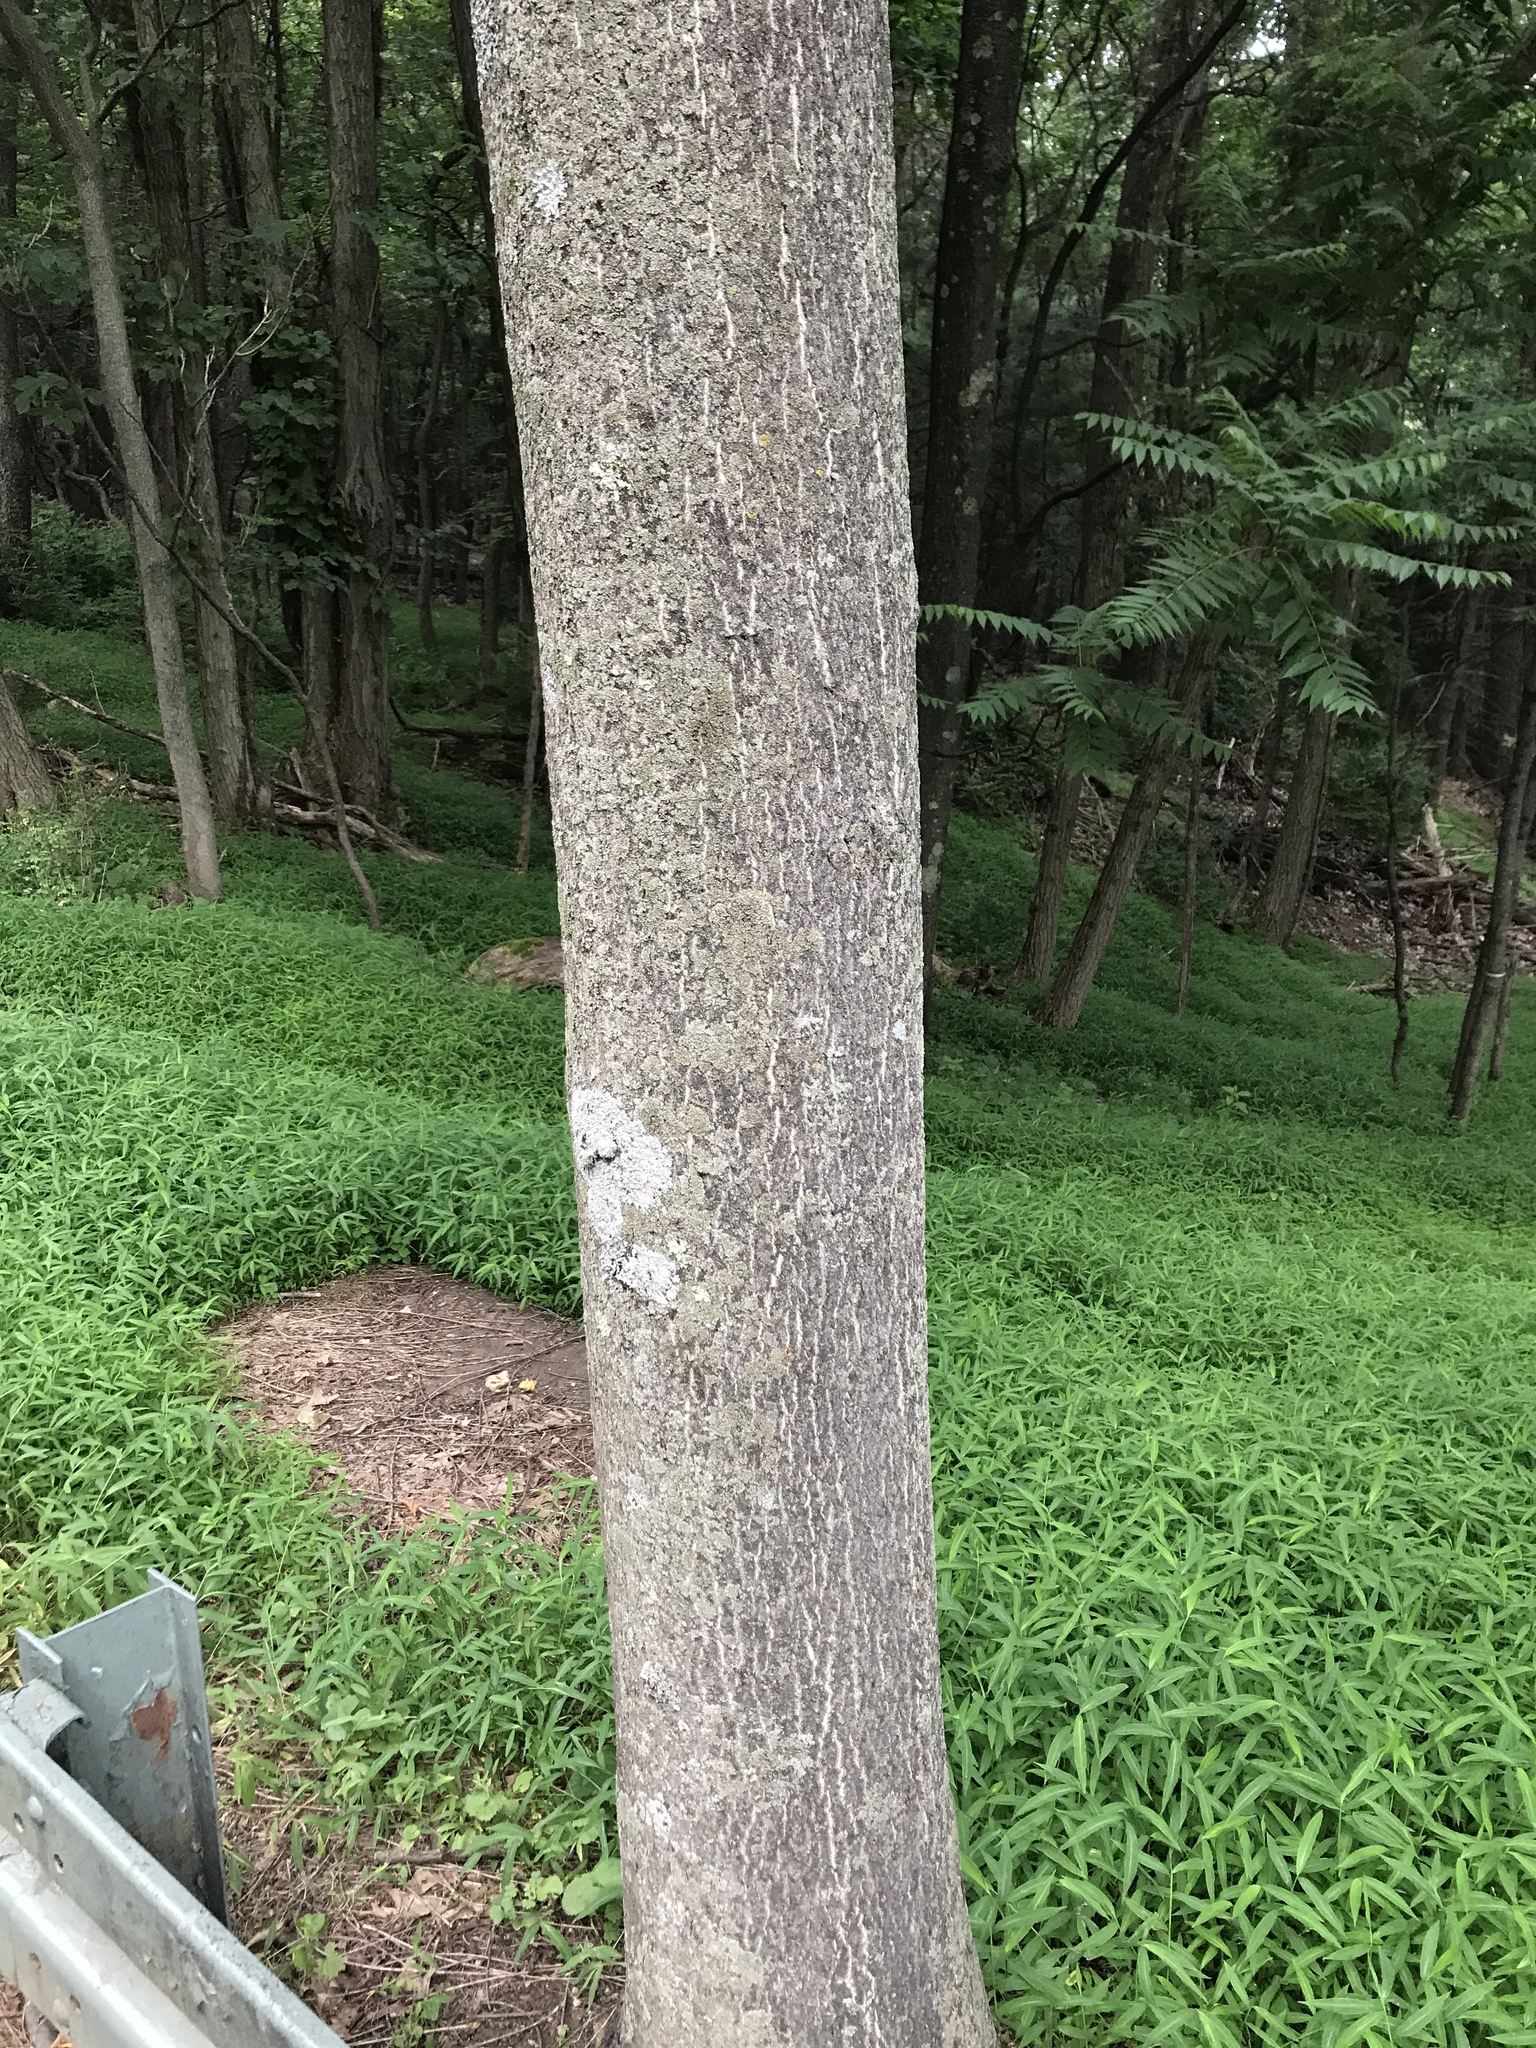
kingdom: Plantae
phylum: Tracheophyta
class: Magnoliopsida
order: Sapindales
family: Simaroubaceae
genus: Ailanthus
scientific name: Ailanthus altissima
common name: Tree-of-heaven
